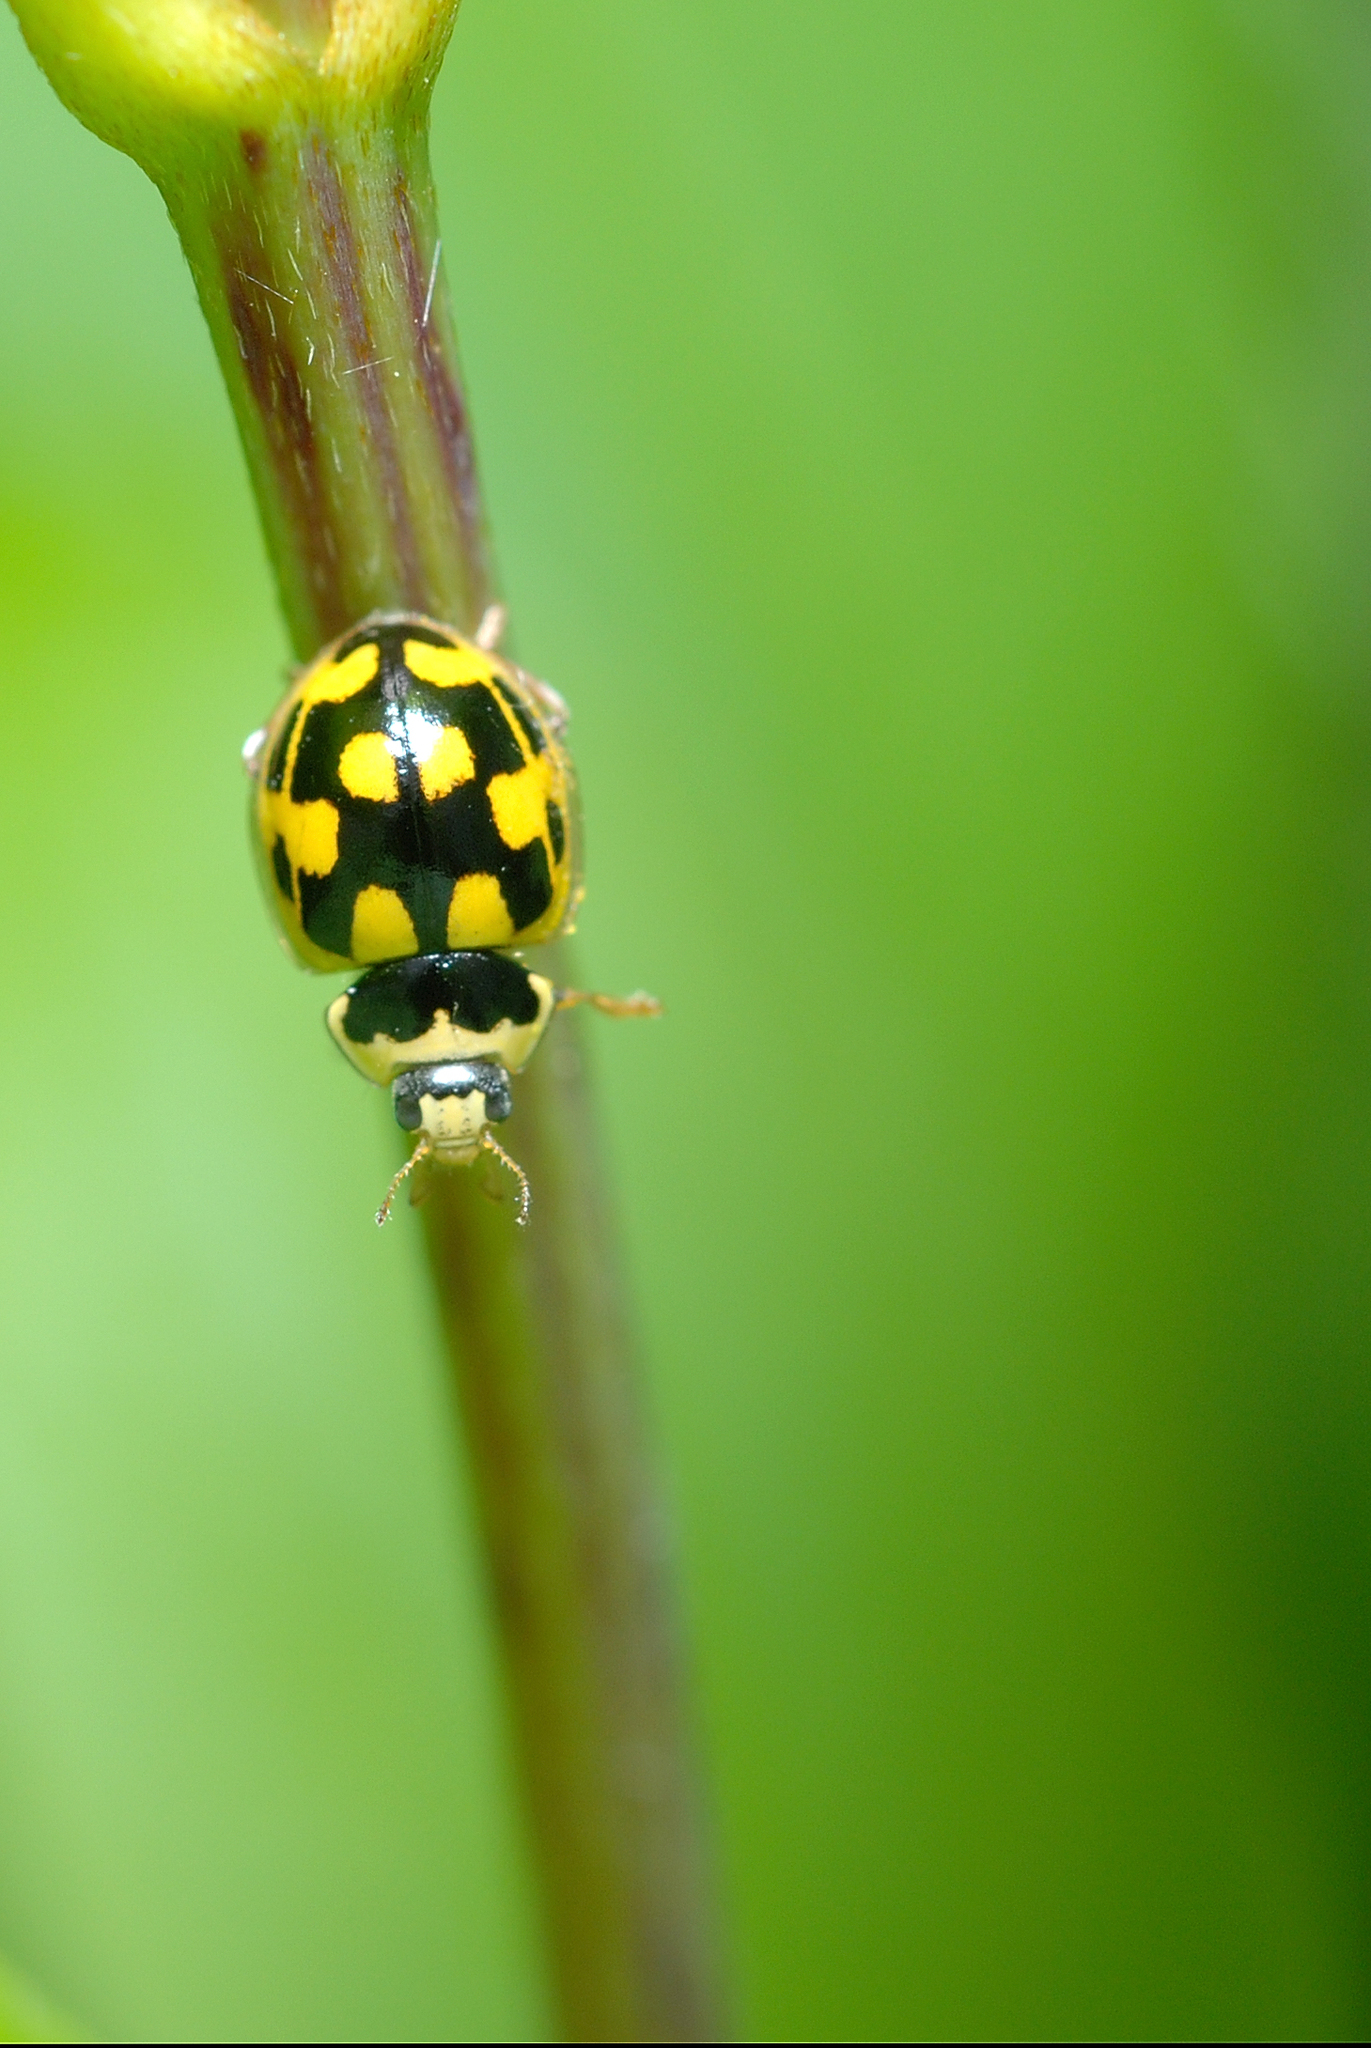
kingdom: Animalia
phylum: Arthropoda
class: Insecta
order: Coleoptera
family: Coccinellidae
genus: Propylaea
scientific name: Propylaea quatuordecimpunctata
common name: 14-spotted ladybird beetle
